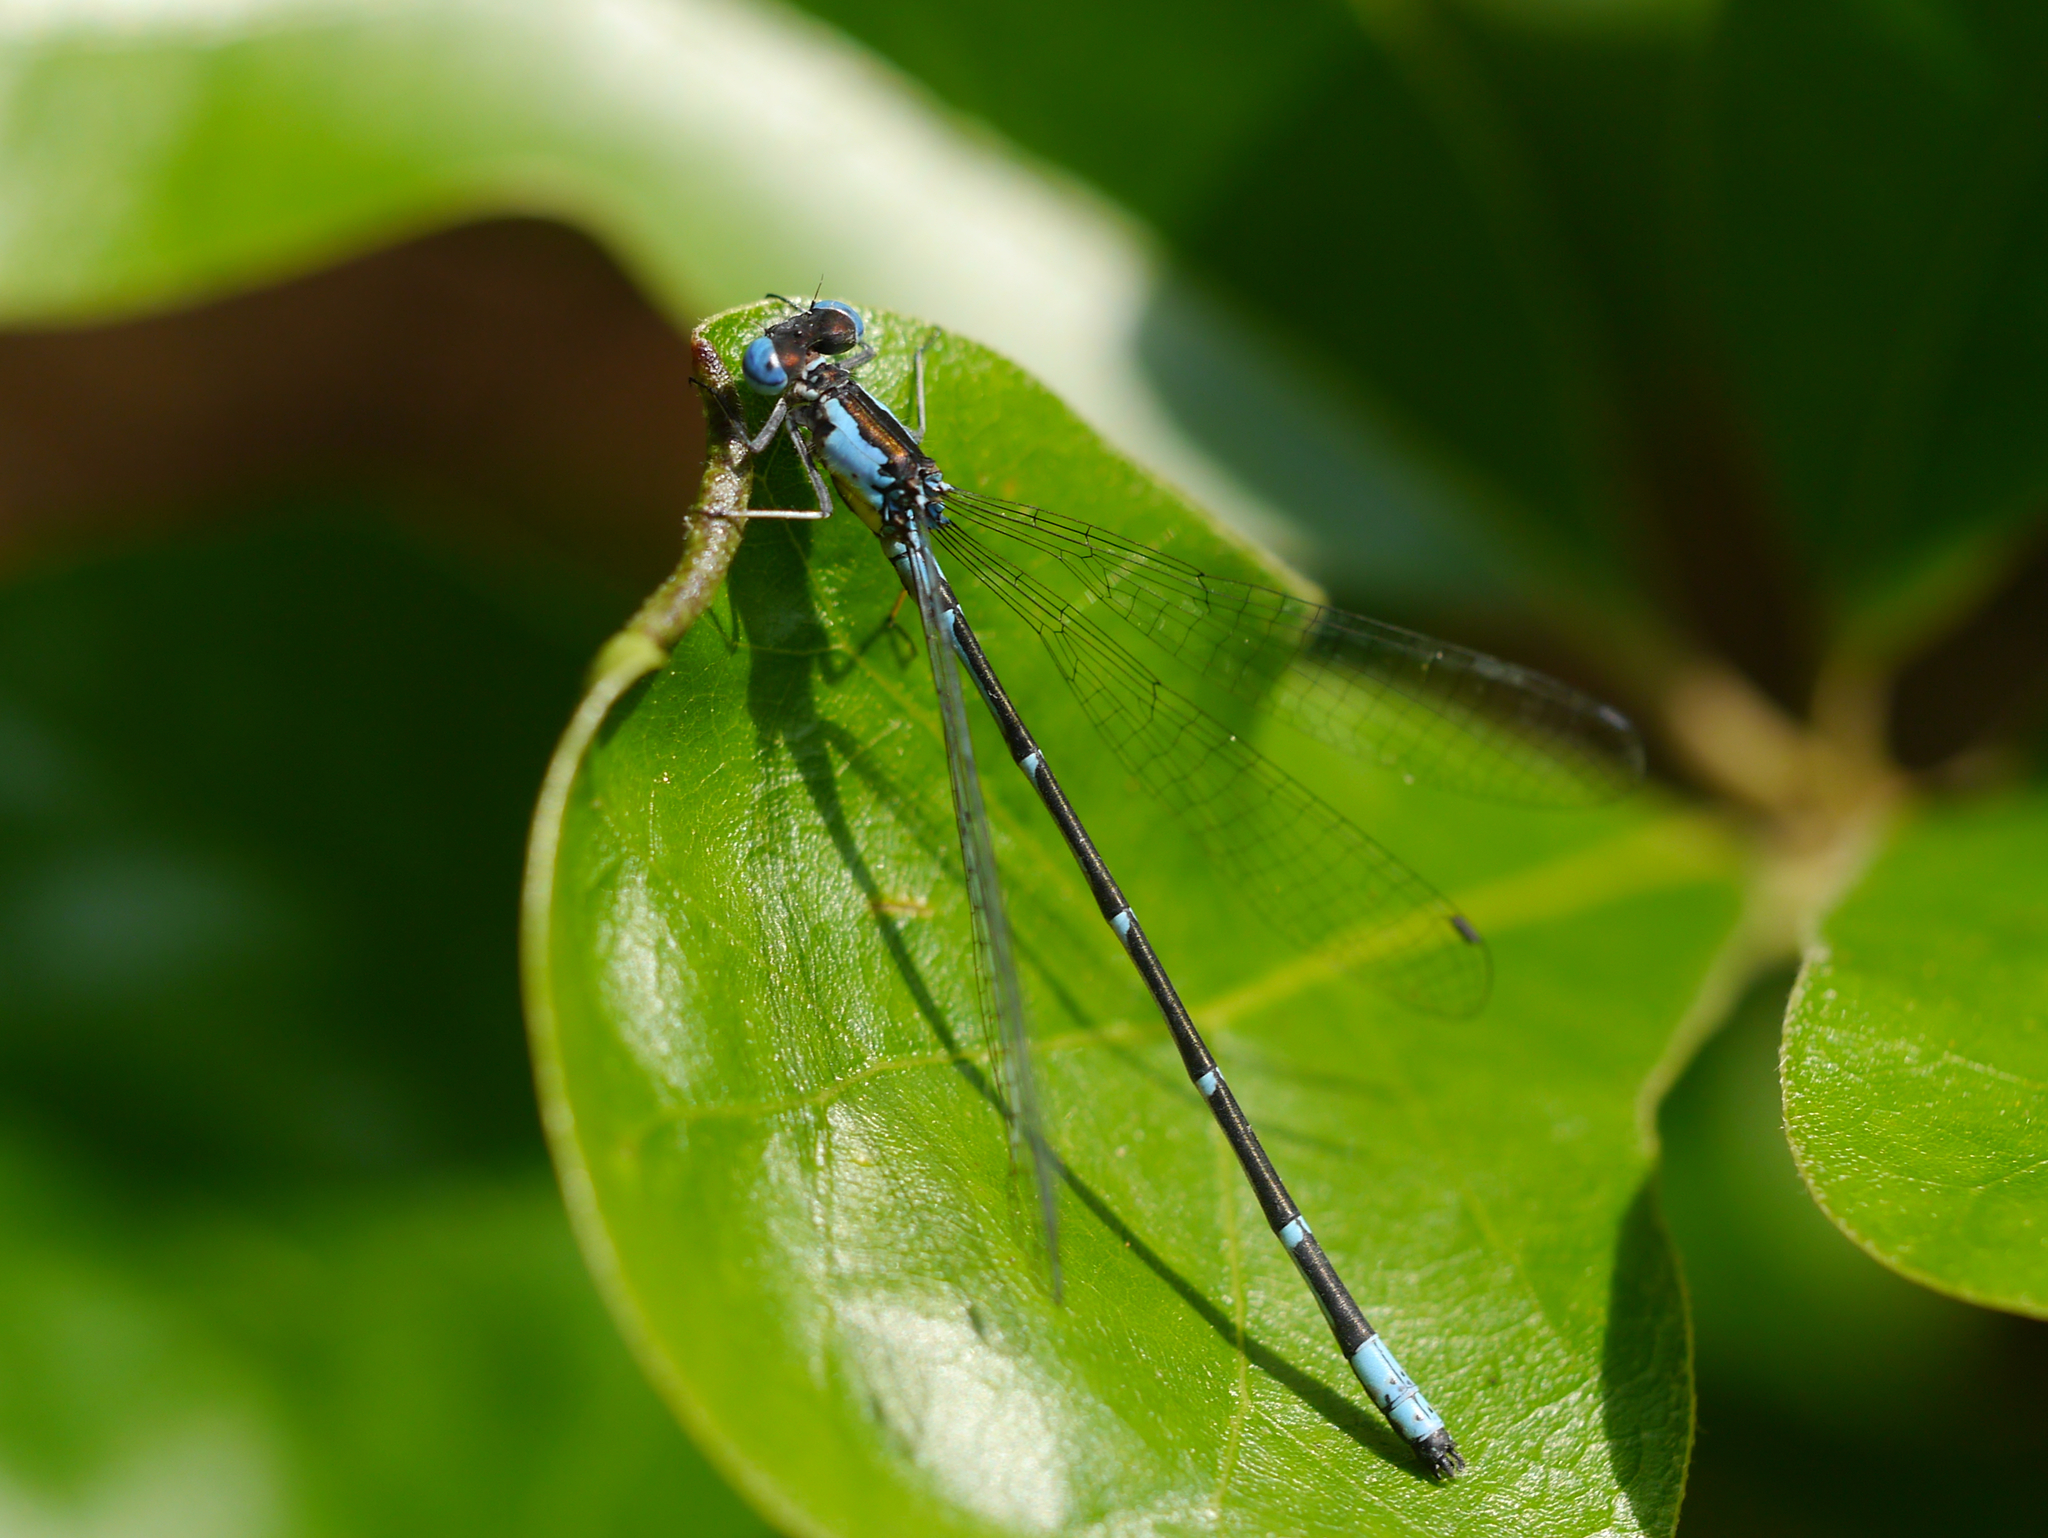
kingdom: Animalia
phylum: Arthropoda
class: Insecta
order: Odonata
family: Coenagrionidae
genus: Chromagrion
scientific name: Chromagrion conditum
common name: Aurora damsel
